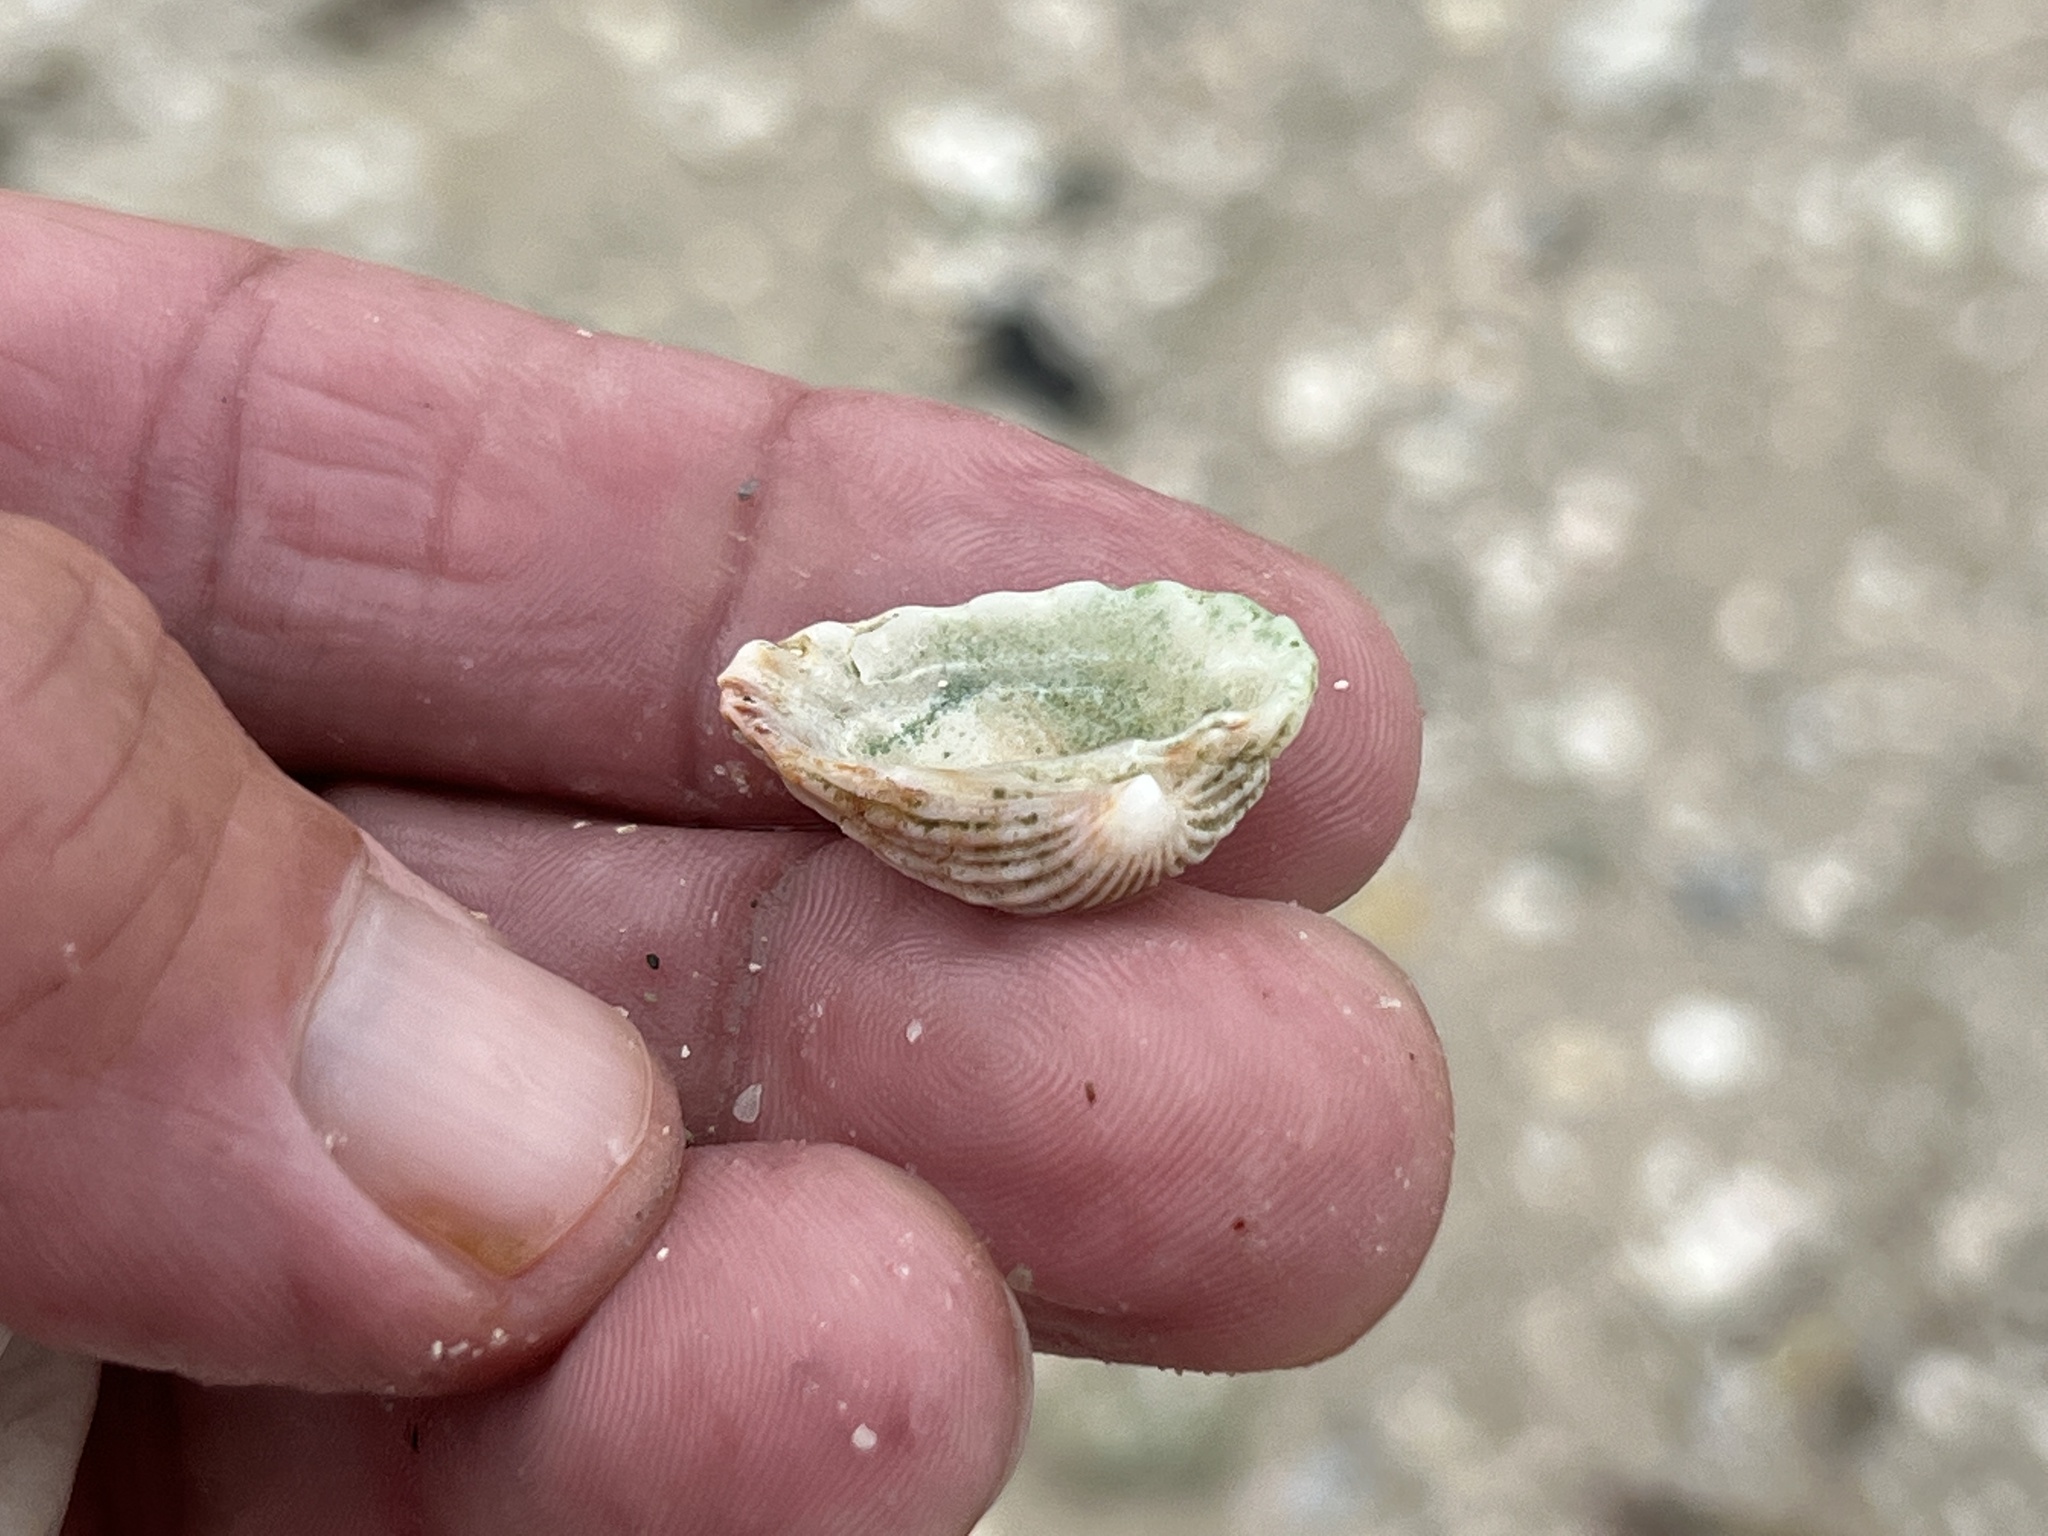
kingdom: Animalia
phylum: Mollusca
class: Bivalvia
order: Carditida
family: Carditidae
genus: Cardites
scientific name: Cardites floridanus
